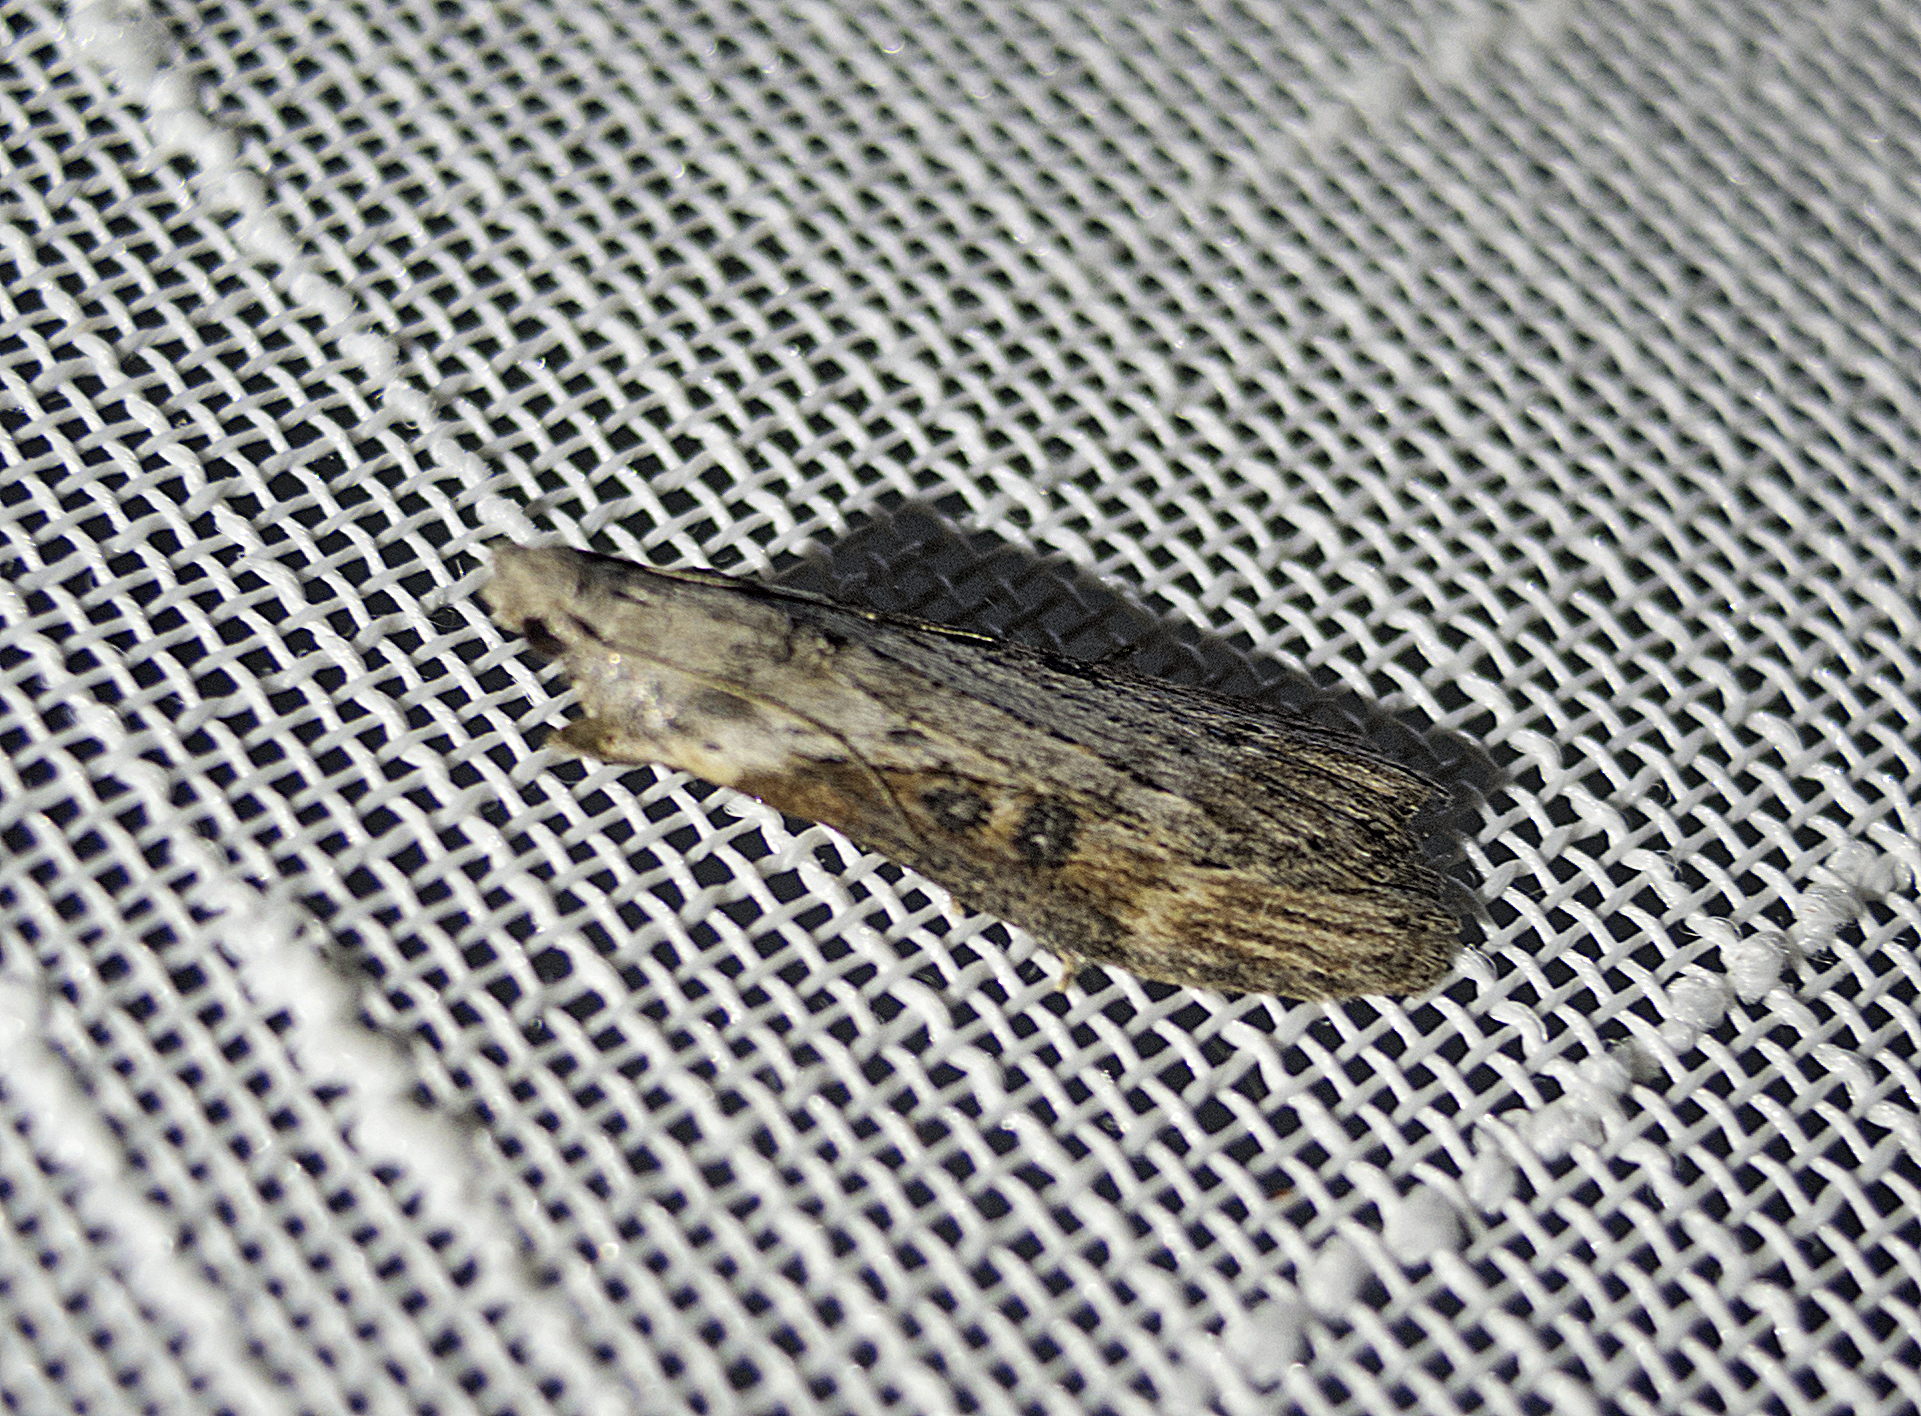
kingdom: Animalia
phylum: Arthropoda
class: Insecta
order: Lepidoptera
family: Pyralidae
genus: Lamoria
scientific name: Lamoria anella
